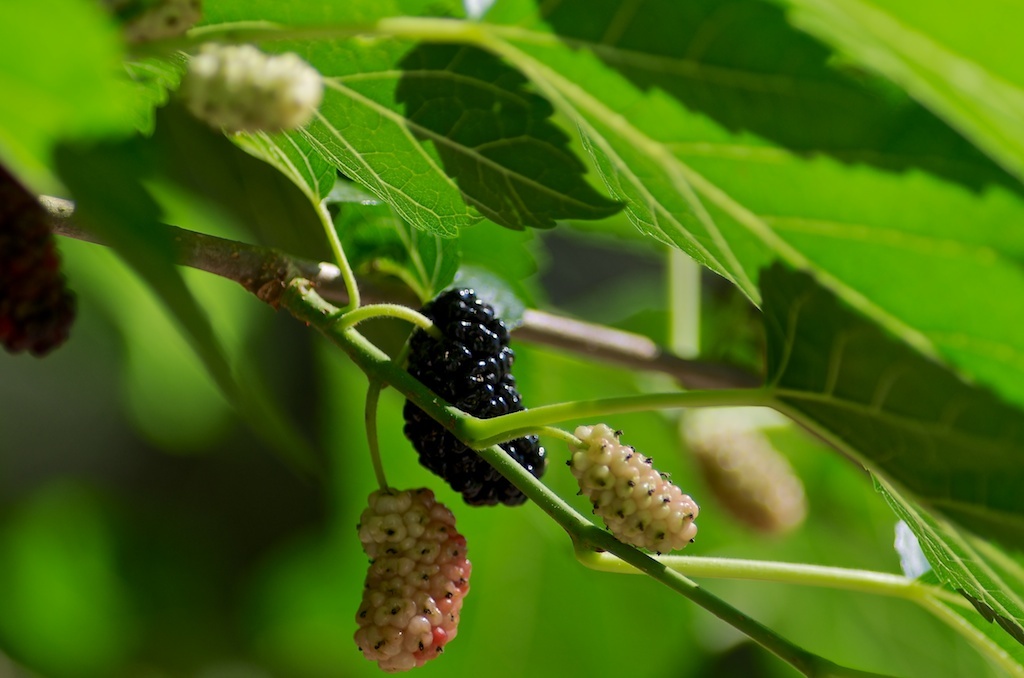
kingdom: Plantae
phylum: Tracheophyta
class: Magnoliopsida
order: Rosales
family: Moraceae
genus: Morus
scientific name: Morus alba
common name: White mulberry
